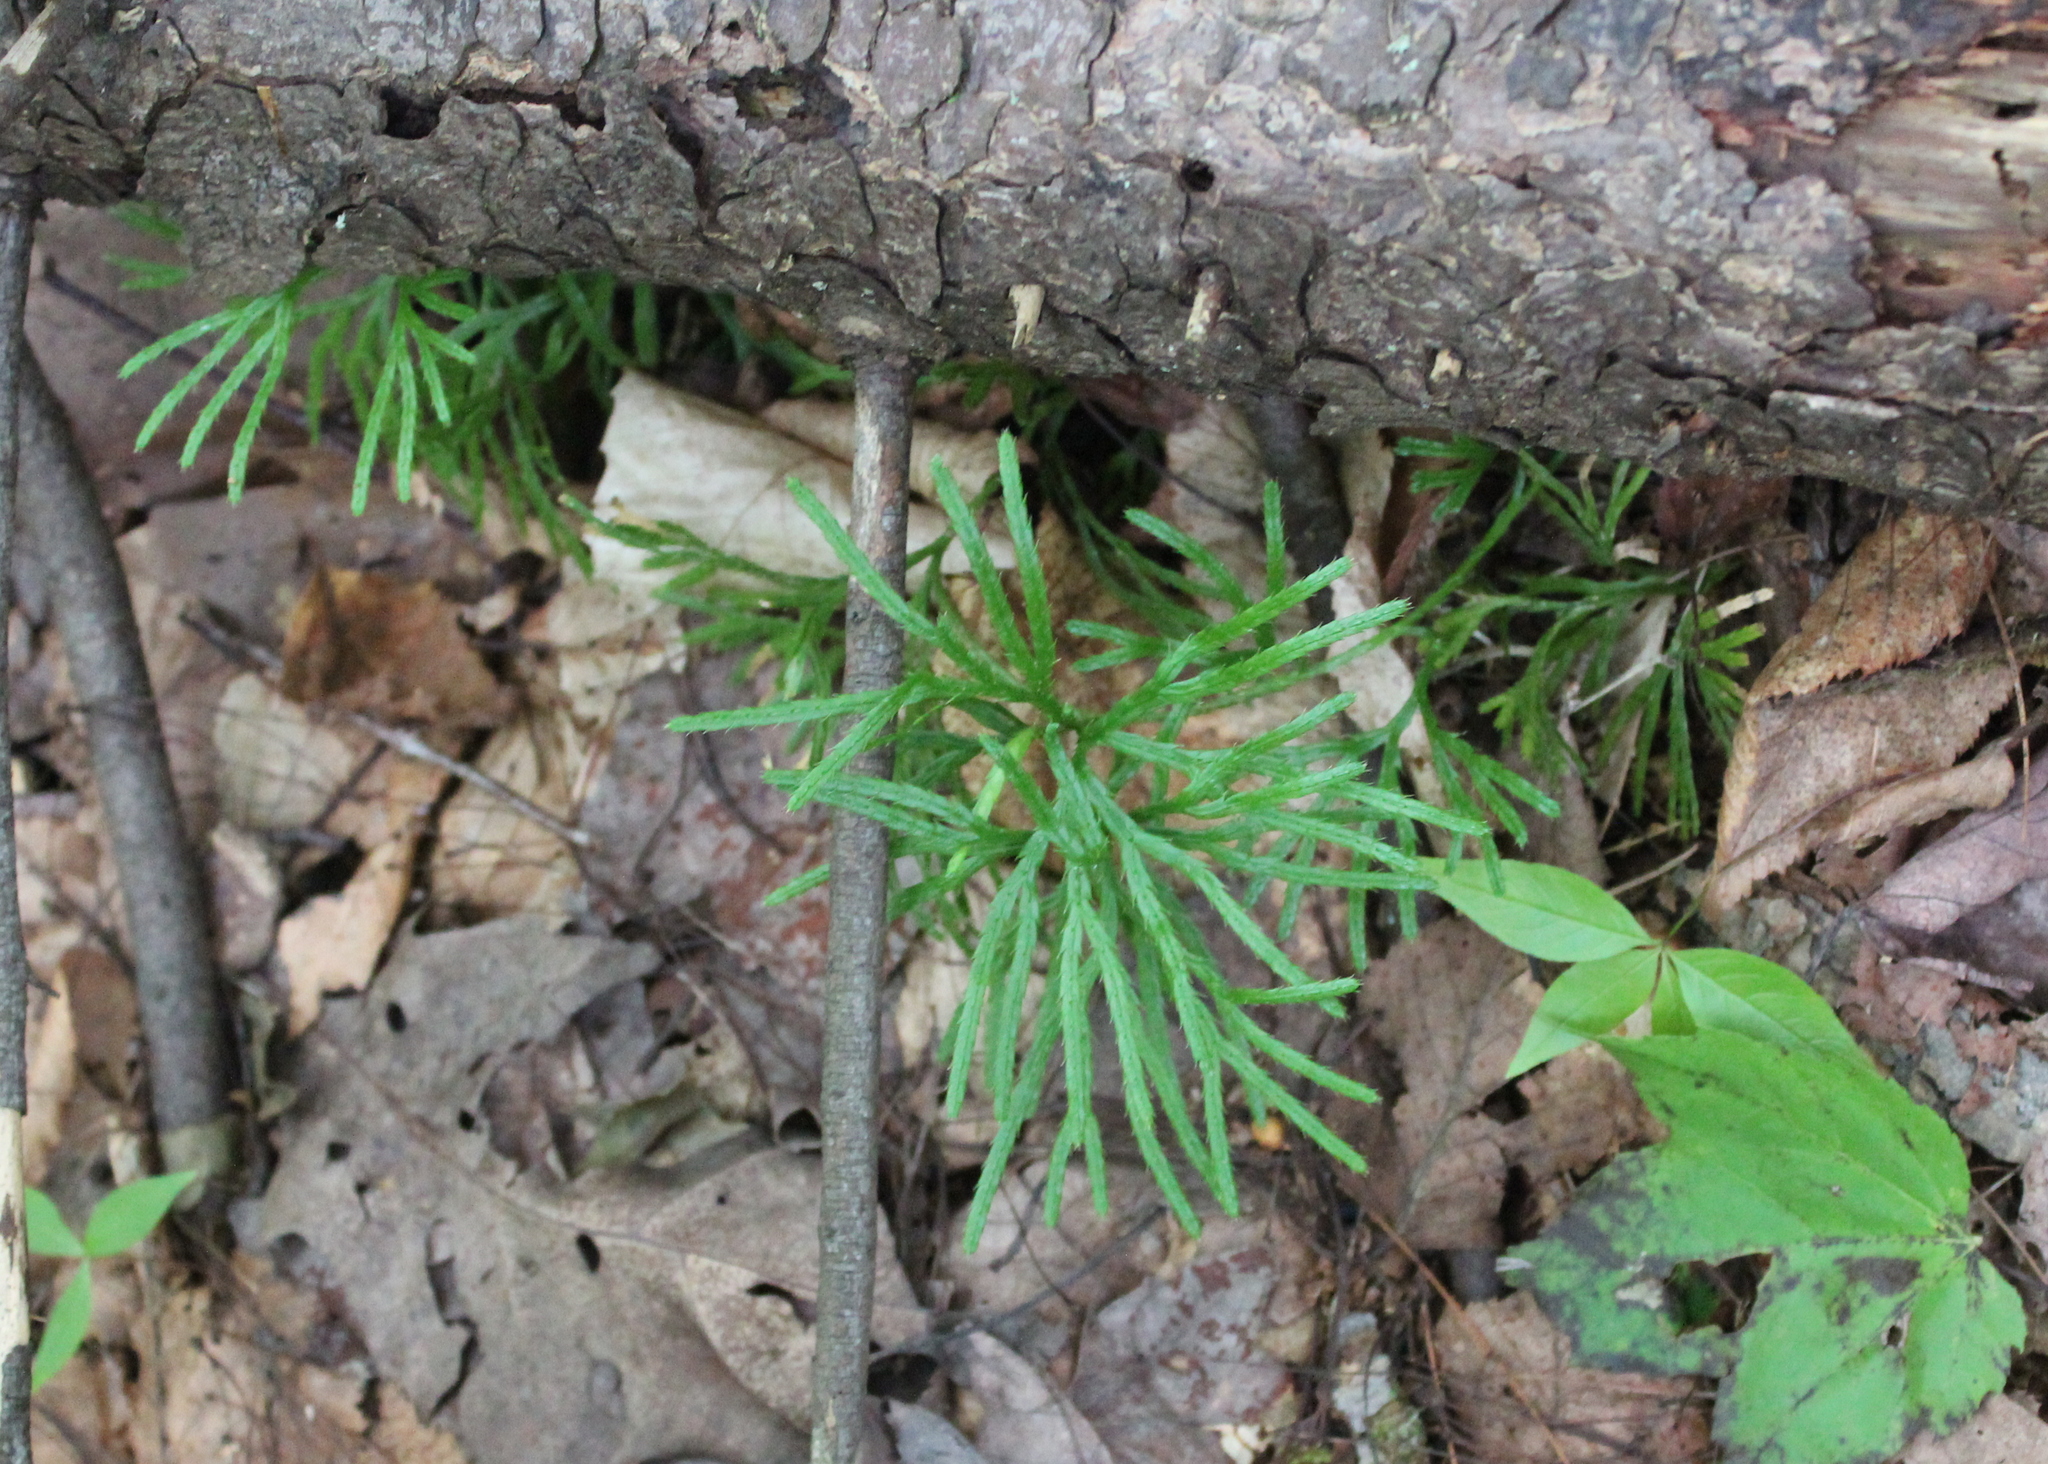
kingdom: Plantae
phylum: Tracheophyta
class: Lycopodiopsida
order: Lycopodiales
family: Lycopodiaceae
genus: Diphasiastrum
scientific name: Diphasiastrum digitatum
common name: Southern running-pine
